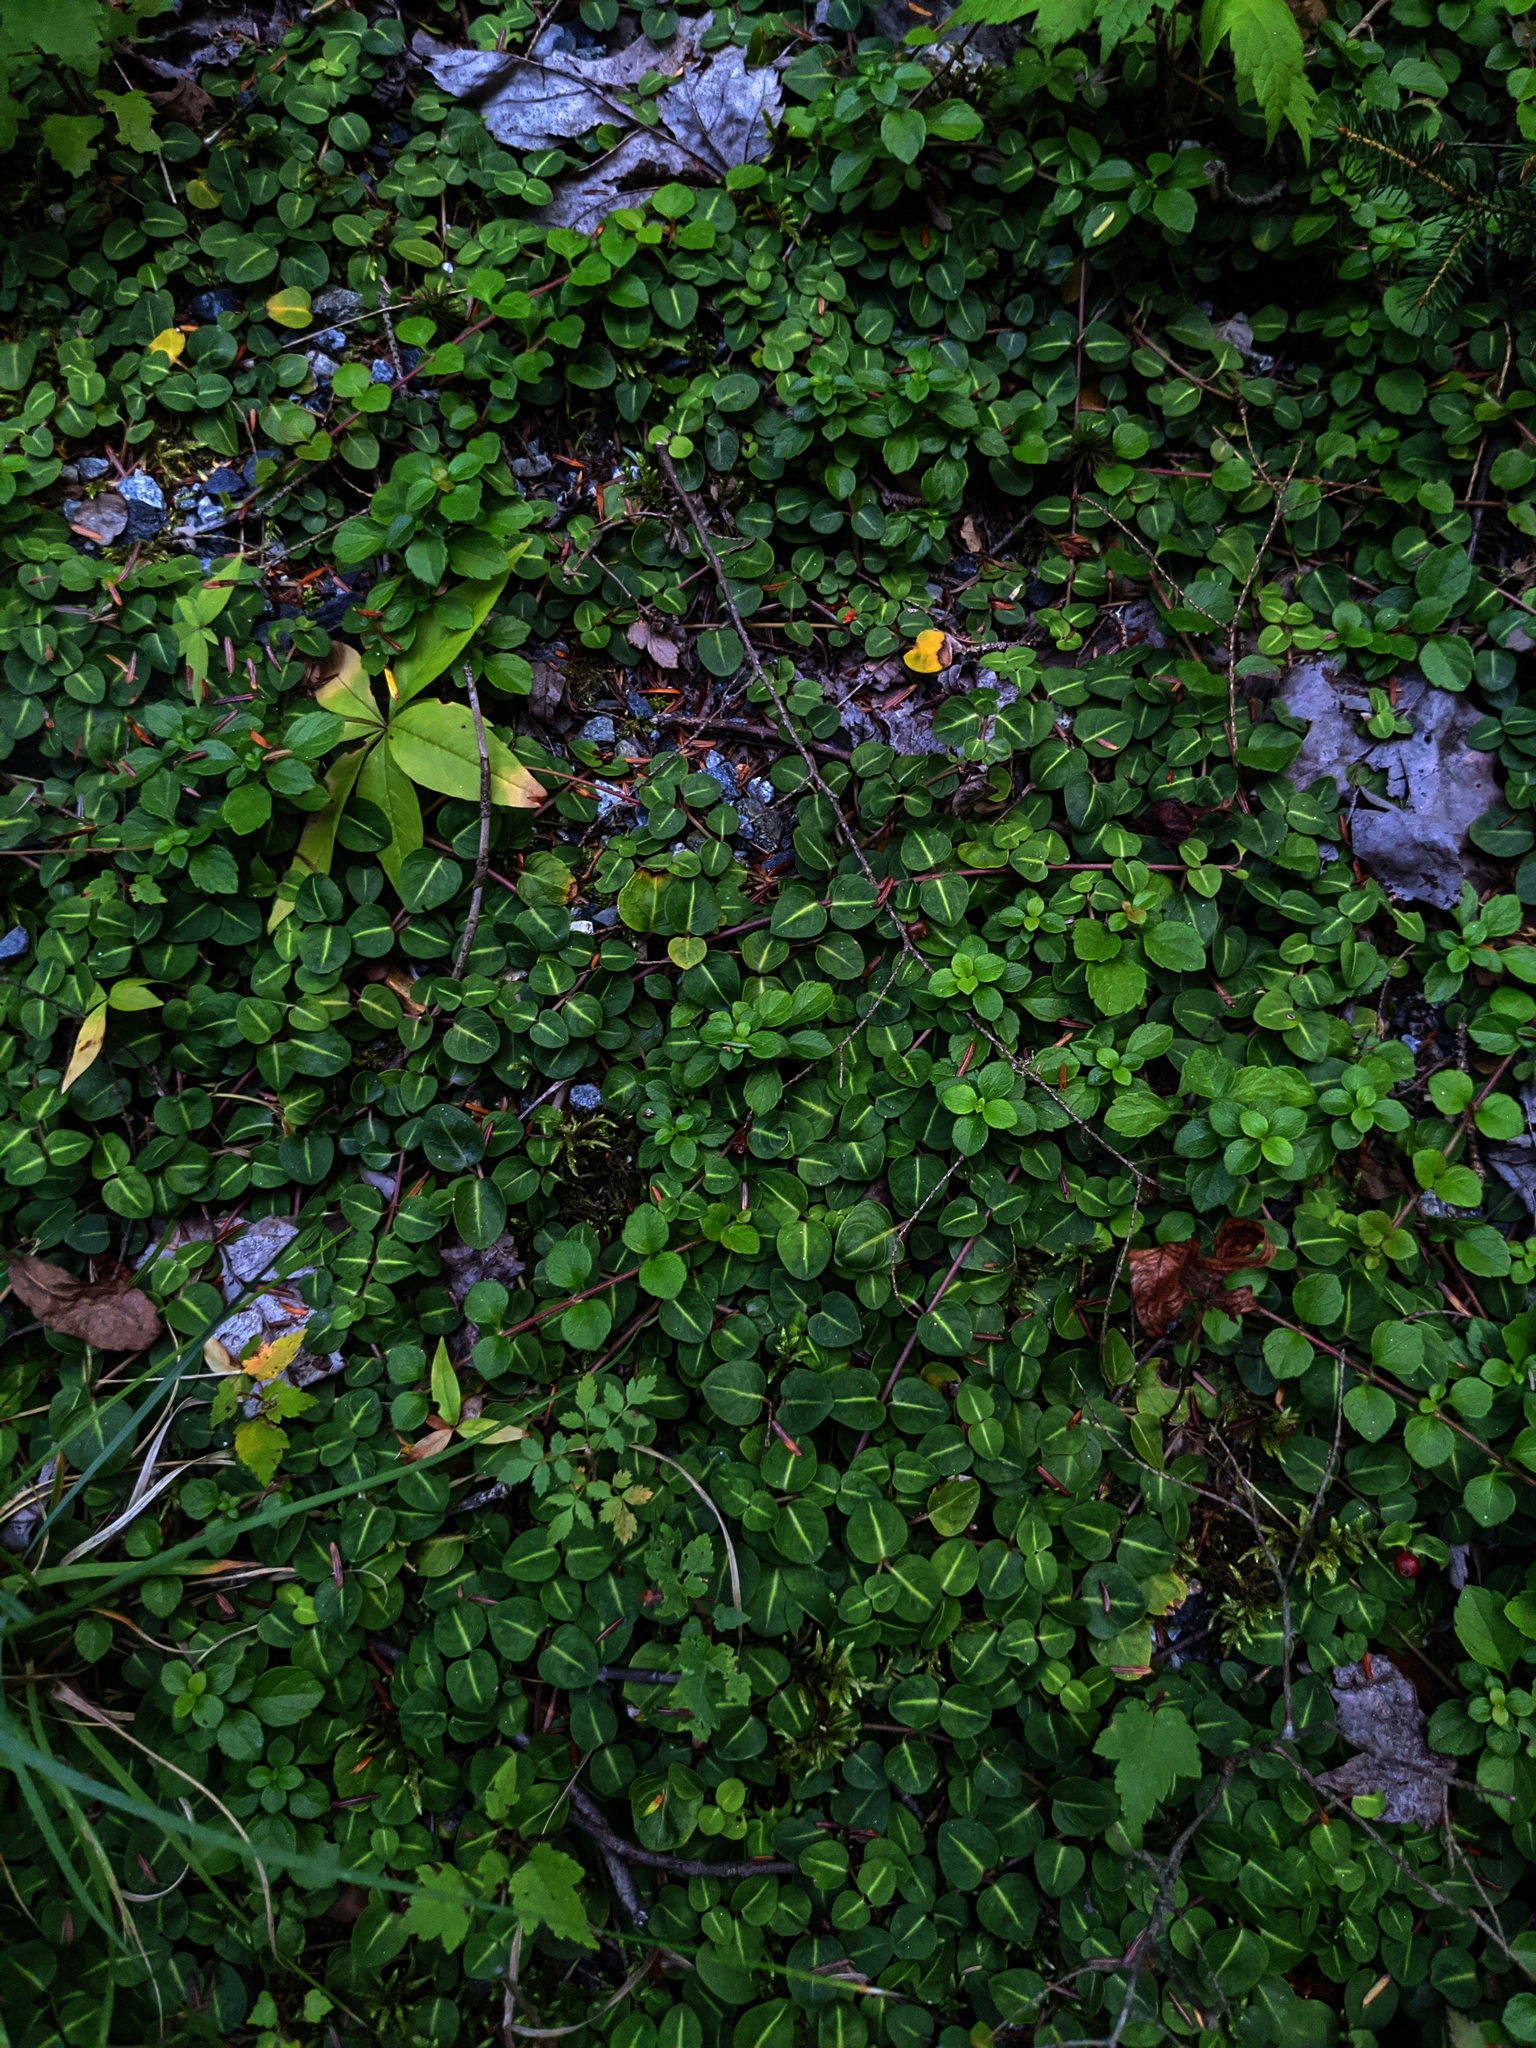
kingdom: Plantae
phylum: Tracheophyta
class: Magnoliopsida
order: Gentianales
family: Rubiaceae
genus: Mitchella
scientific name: Mitchella repens
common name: Partridge-berry
